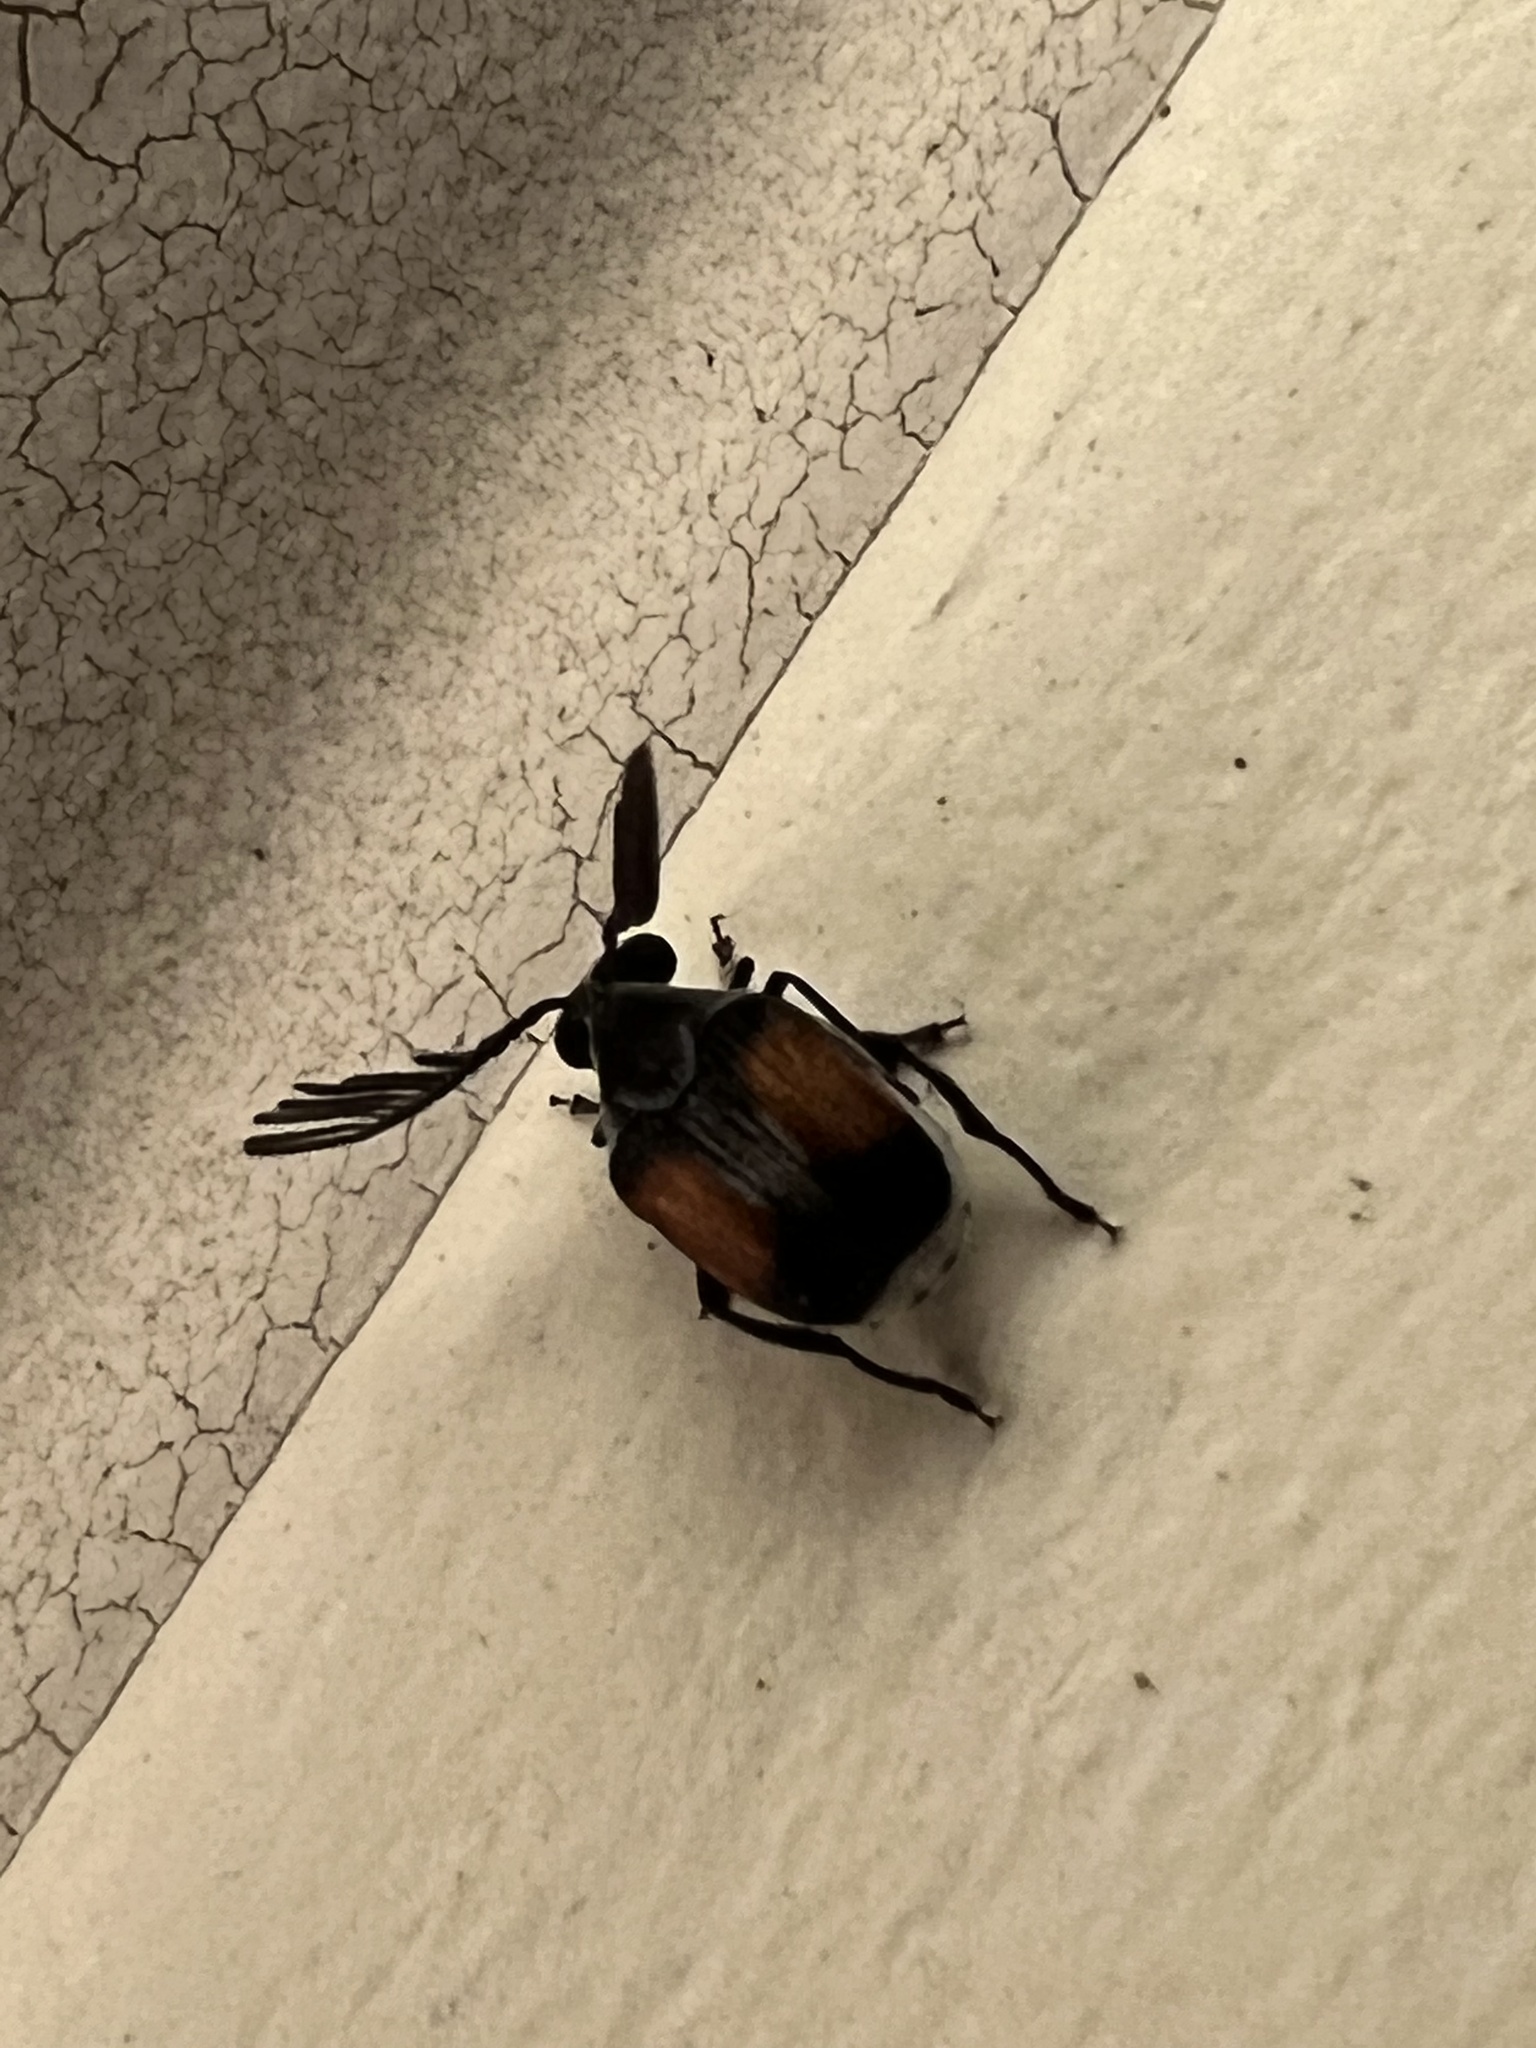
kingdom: Animalia
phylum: Arthropoda
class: Insecta
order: Coleoptera
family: Chrysomelidae
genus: Megacerus
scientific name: Megacerus discoidus
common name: Red megacerus
